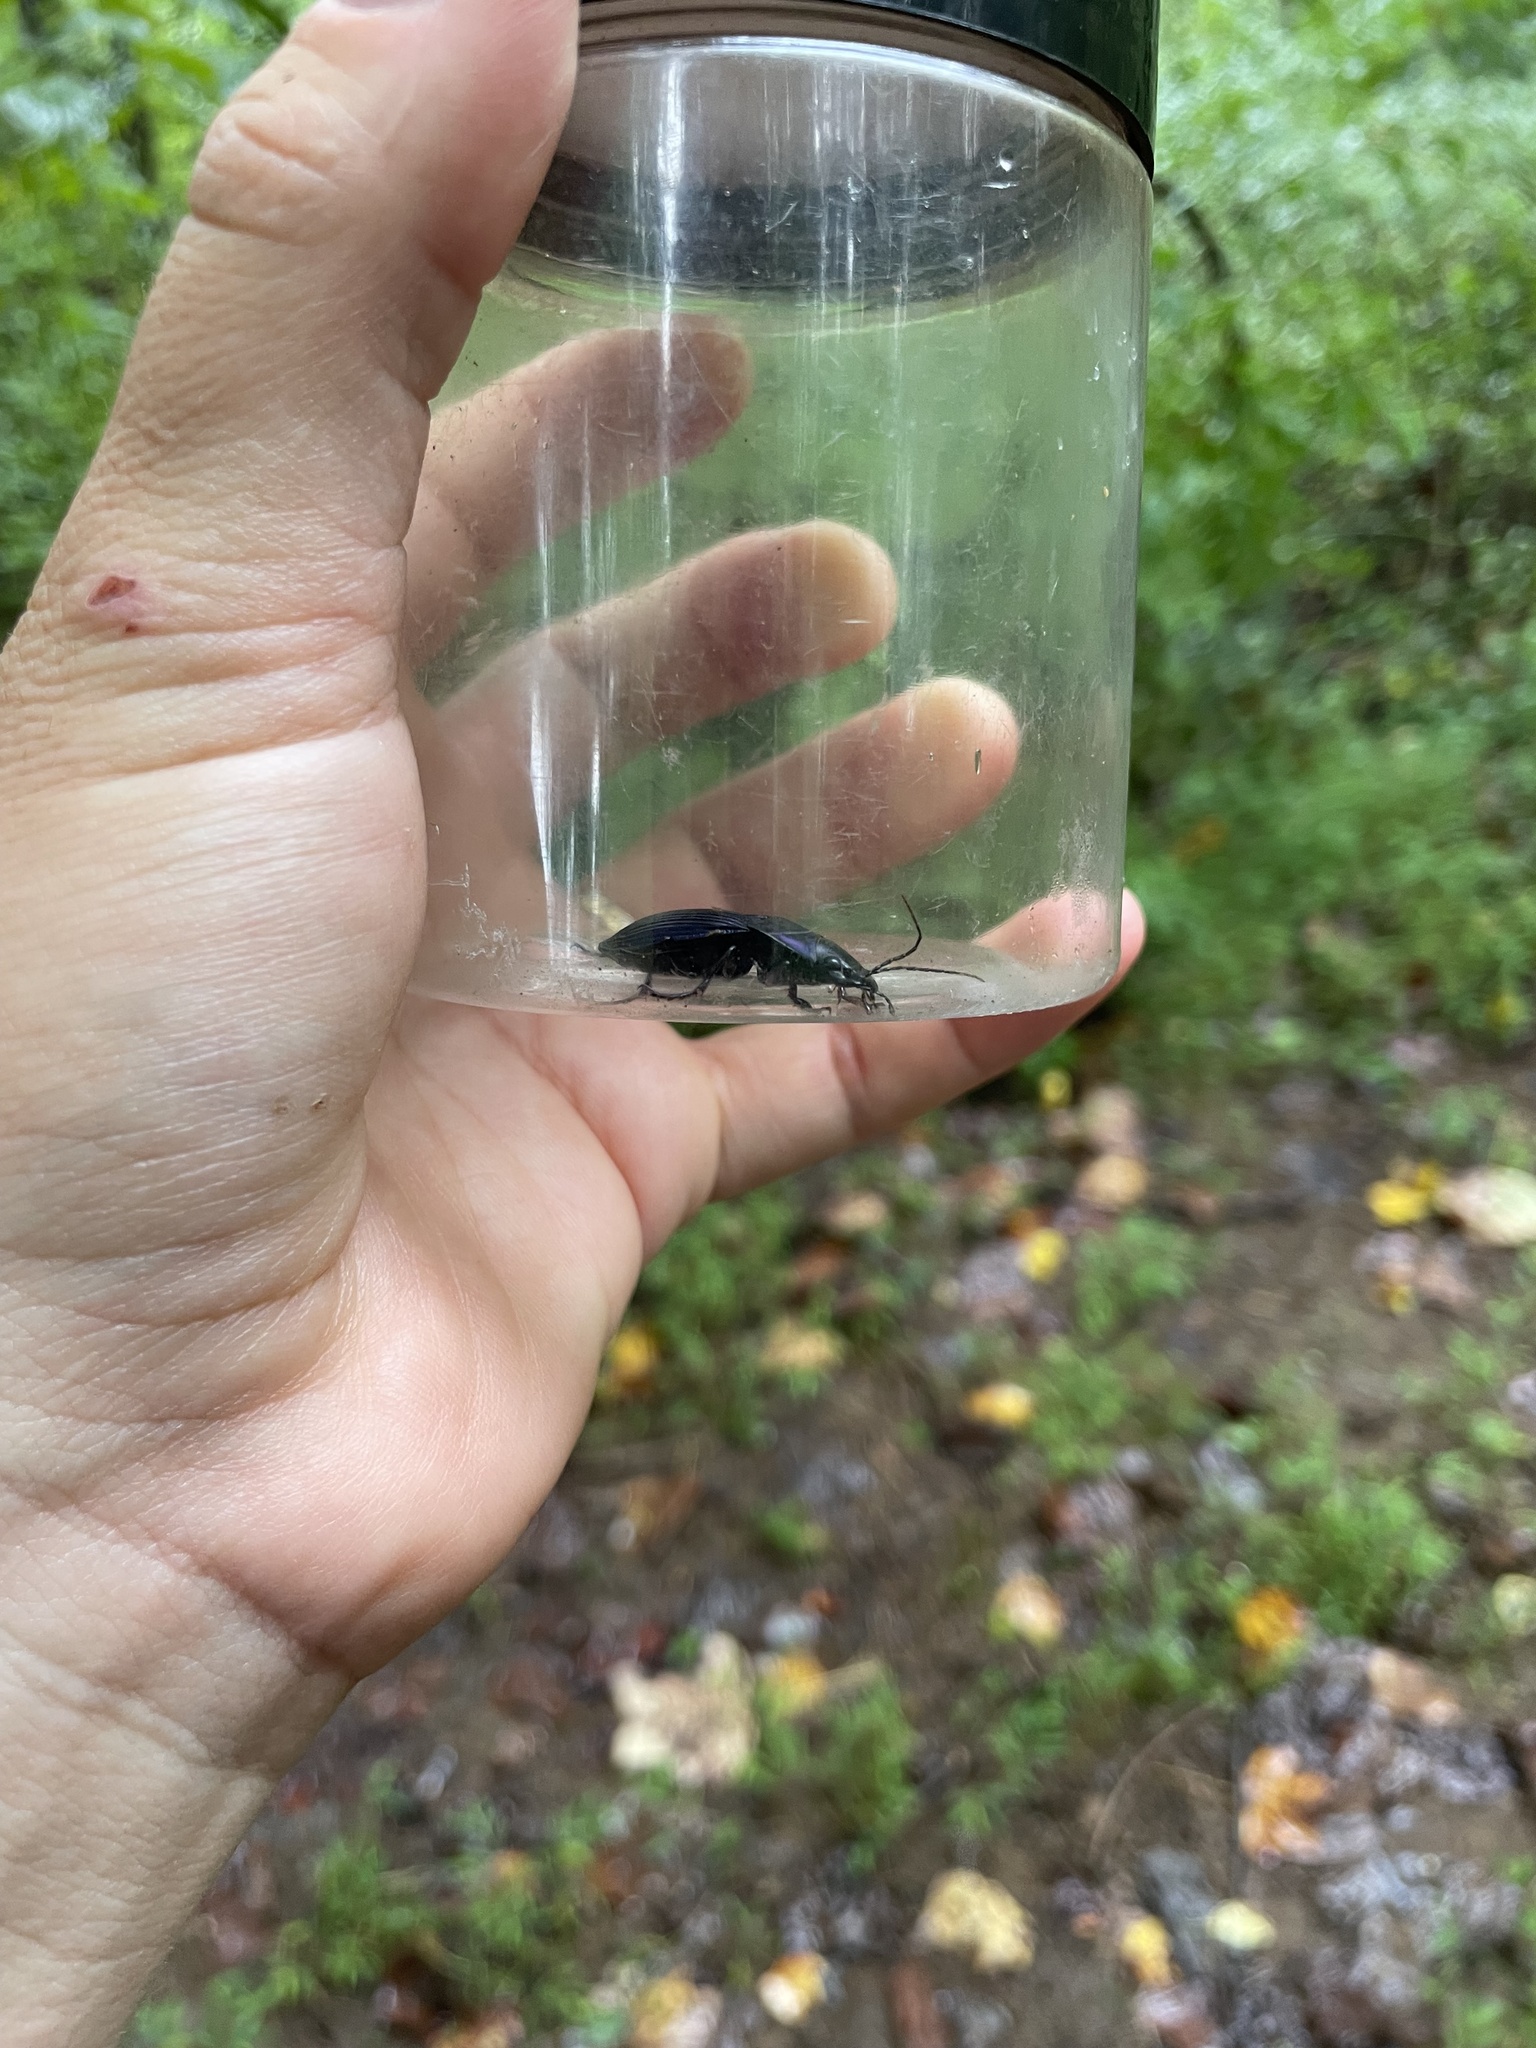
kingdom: Animalia
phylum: Arthropoda
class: Insecta
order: Coleoptera
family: Carabidae
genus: Dicaelus
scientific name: Dicaelus purpuratus
